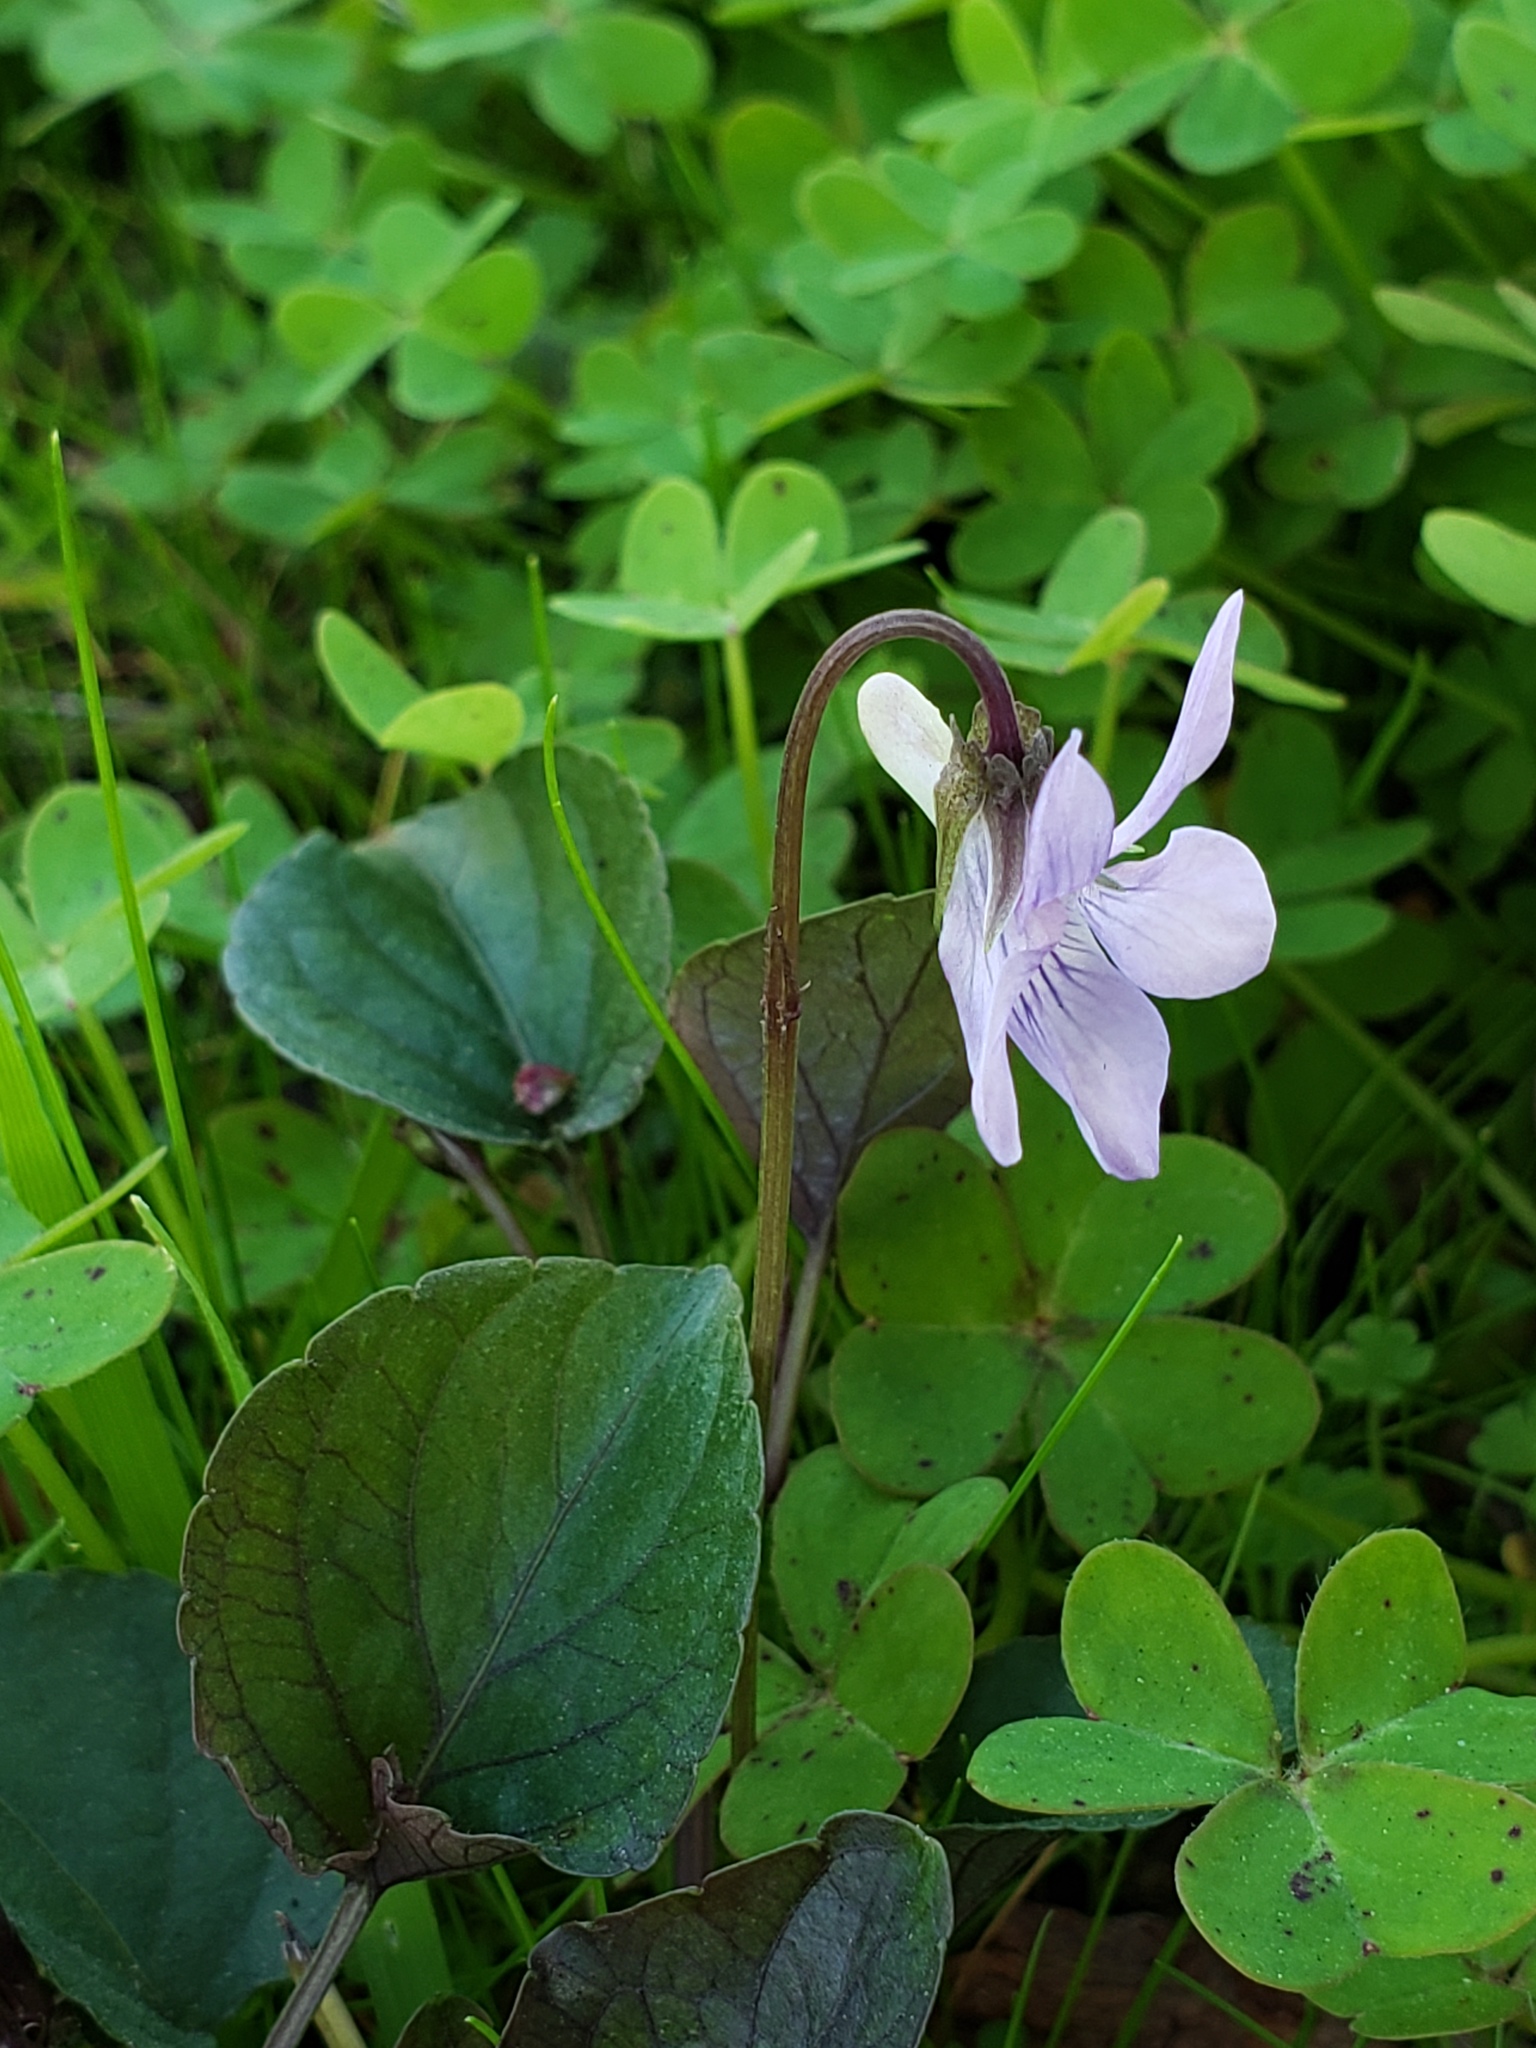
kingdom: Plantae
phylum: Tracheophyta
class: Magnoliopsida
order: Malpighiales
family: Violaceae
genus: Viola
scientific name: Viola riviniana
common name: Common dog-violet
